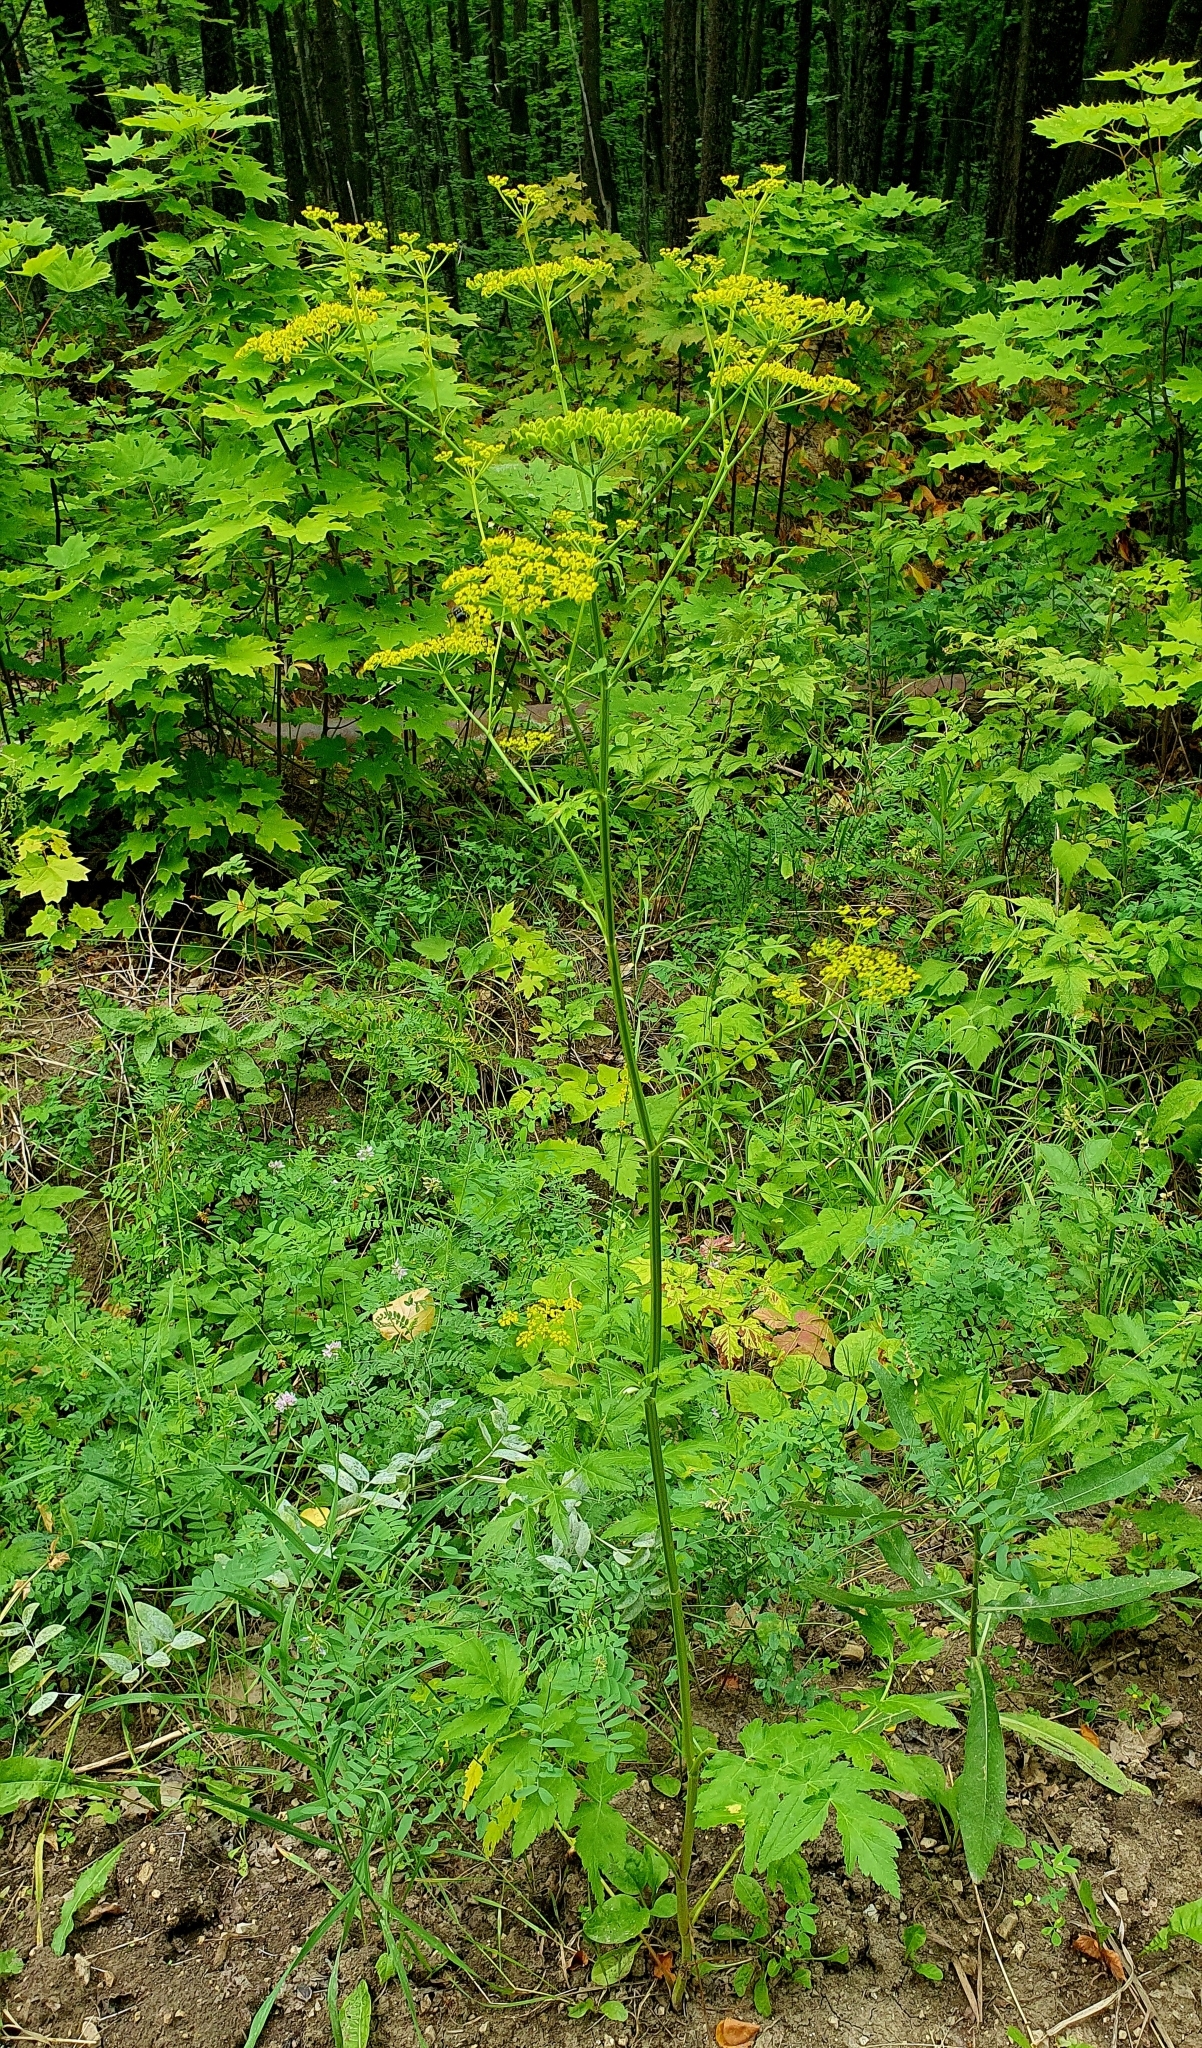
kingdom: Plantae
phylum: Tracheophyta
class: Magnoliopsida
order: Apiales
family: Apiaceae
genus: Pastinaca
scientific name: Pastinaca sativa
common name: Wild parsnip
